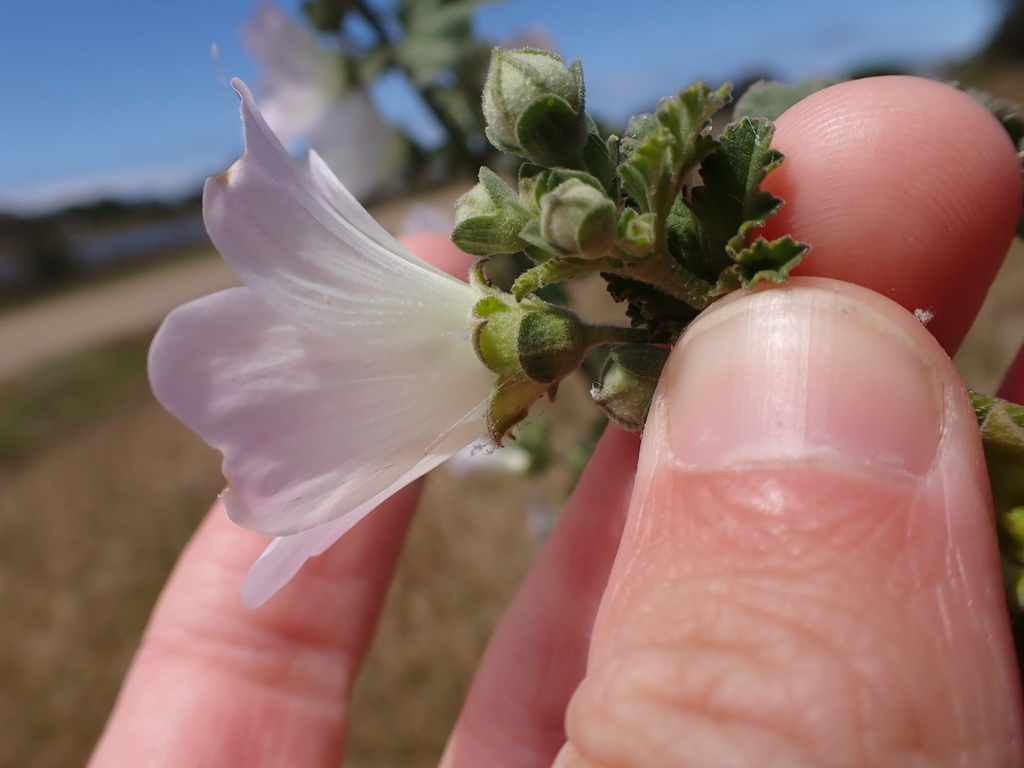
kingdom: Plantae
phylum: Tracheophyta
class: Magnoliopsida
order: Malvales
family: Malvaceae
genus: Malva
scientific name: Malva preissiana
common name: Australian-hollyhock
